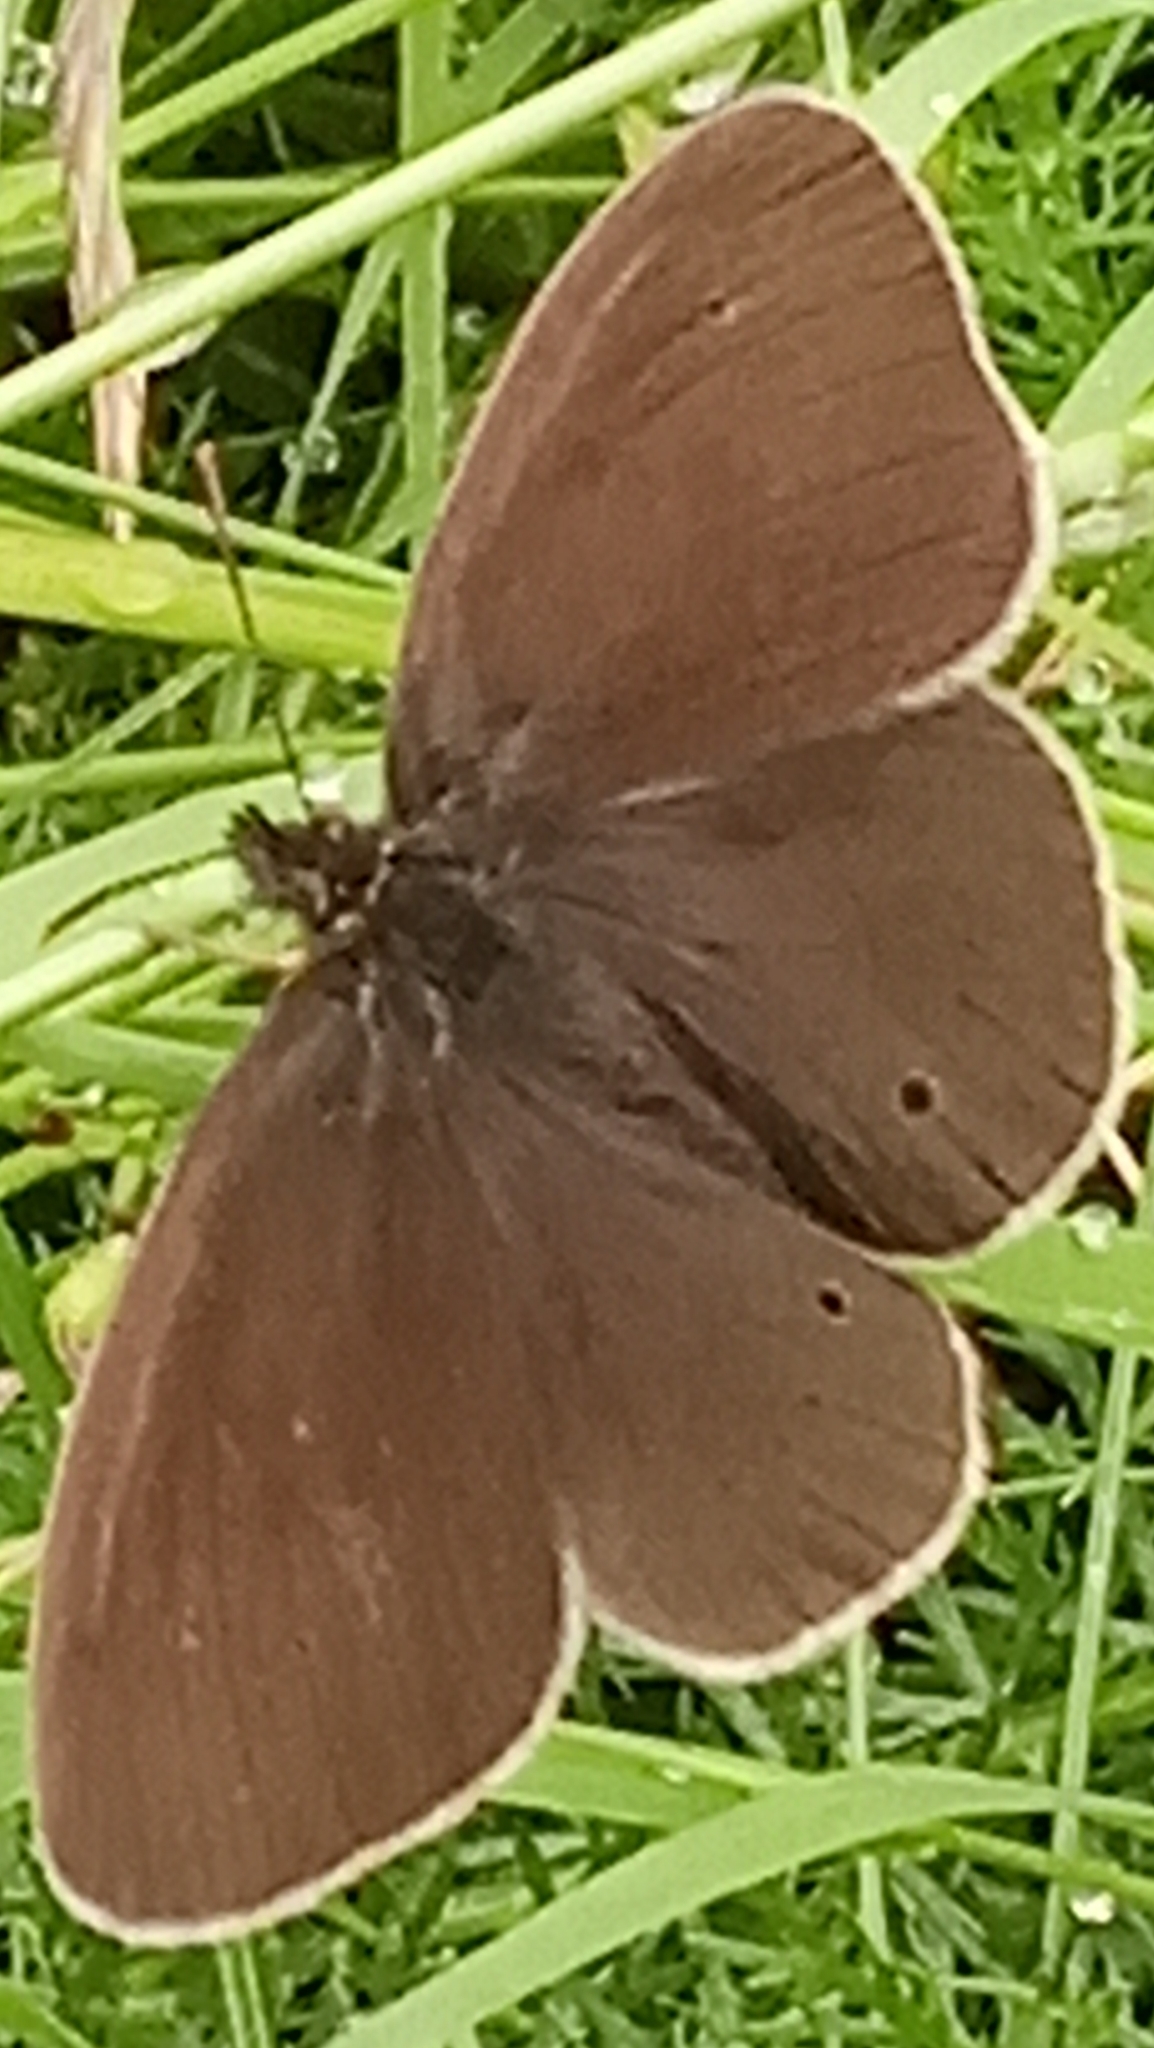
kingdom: Animalia
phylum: Arthropoda
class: Insecta
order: Lepidoptera
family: Nymphalidae
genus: Aphantopus
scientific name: Aphantopus hyperantus
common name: Ringlet
